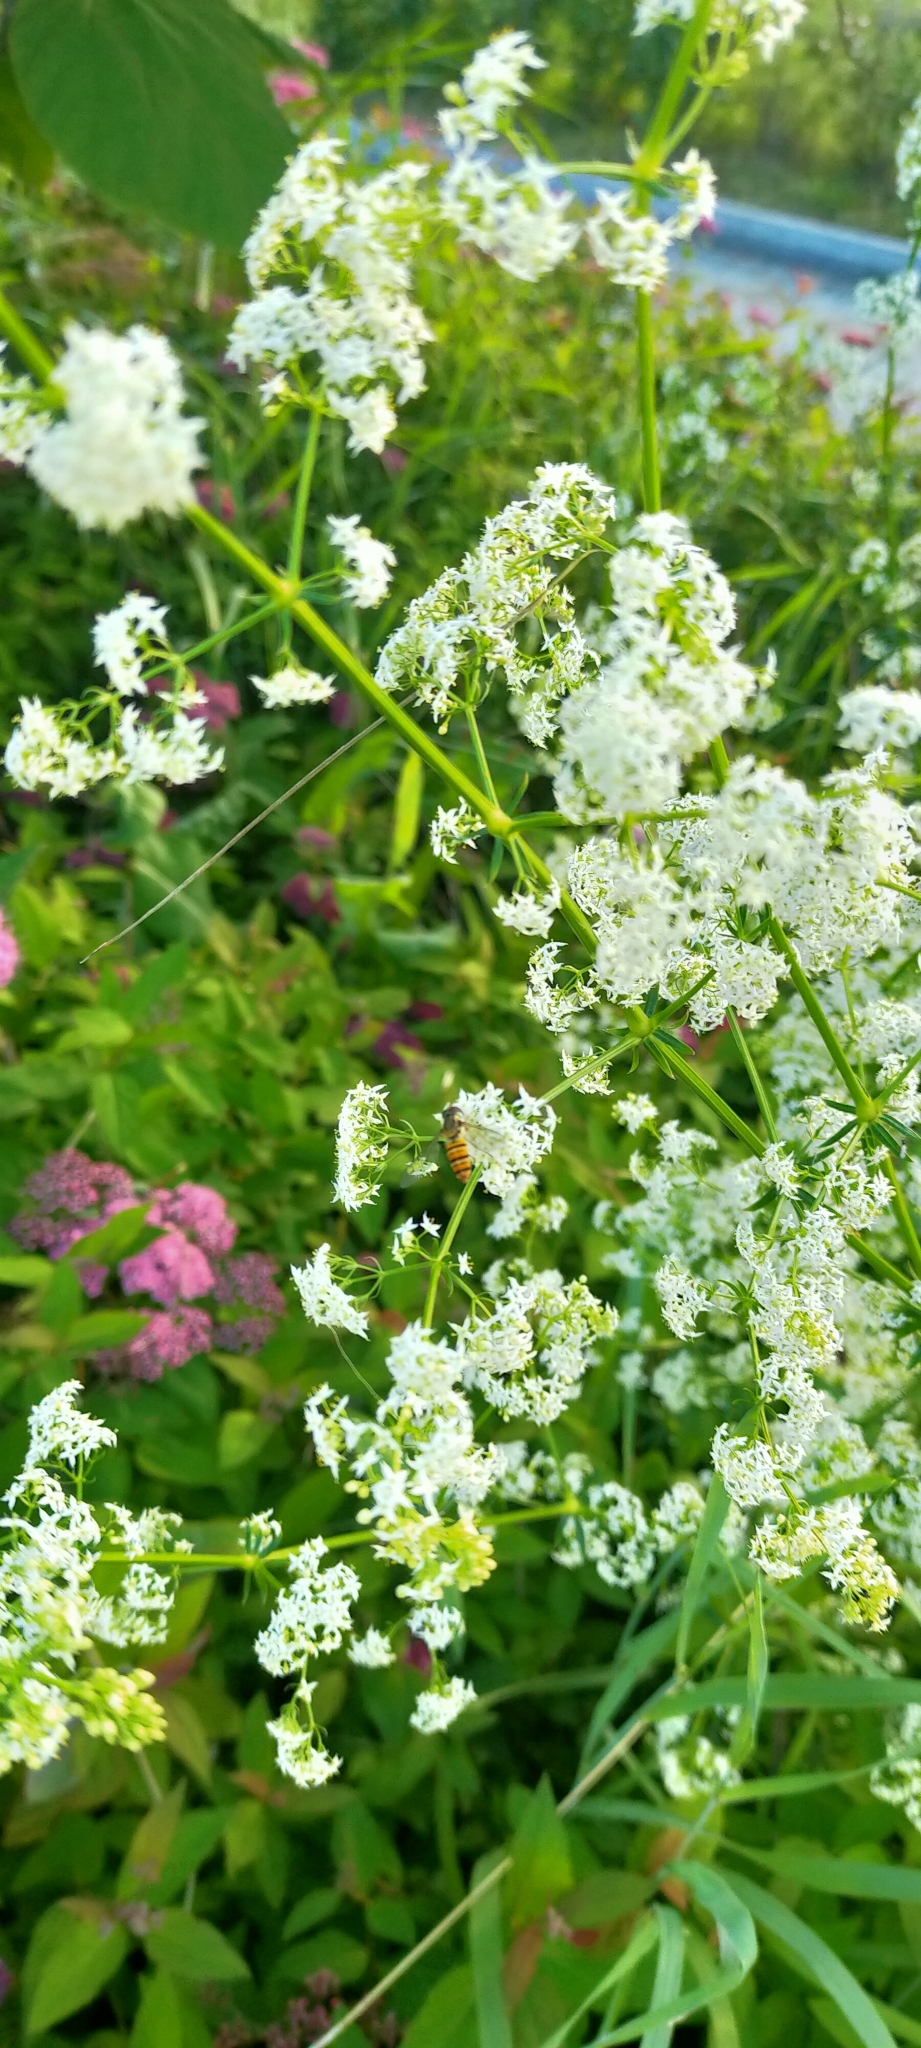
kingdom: Plantae
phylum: Tracheophyta
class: Magnoliopsida
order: Gentianales
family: Rubiaceae
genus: Galium
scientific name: Galium mollugo
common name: Hedge bedstraw
